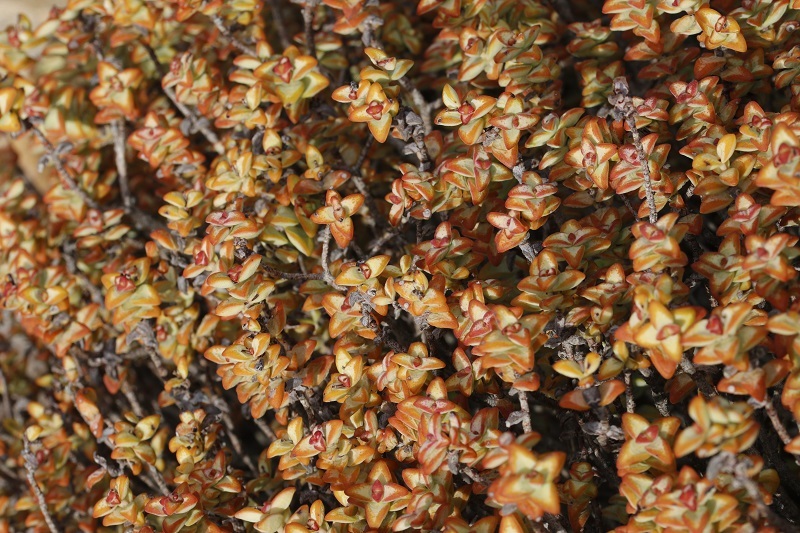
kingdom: Plantae
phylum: Tracheophyta
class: Magnoliopsida
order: Saxifragales
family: Crassulaceae
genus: Crassula
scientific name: Crassula rupestris
